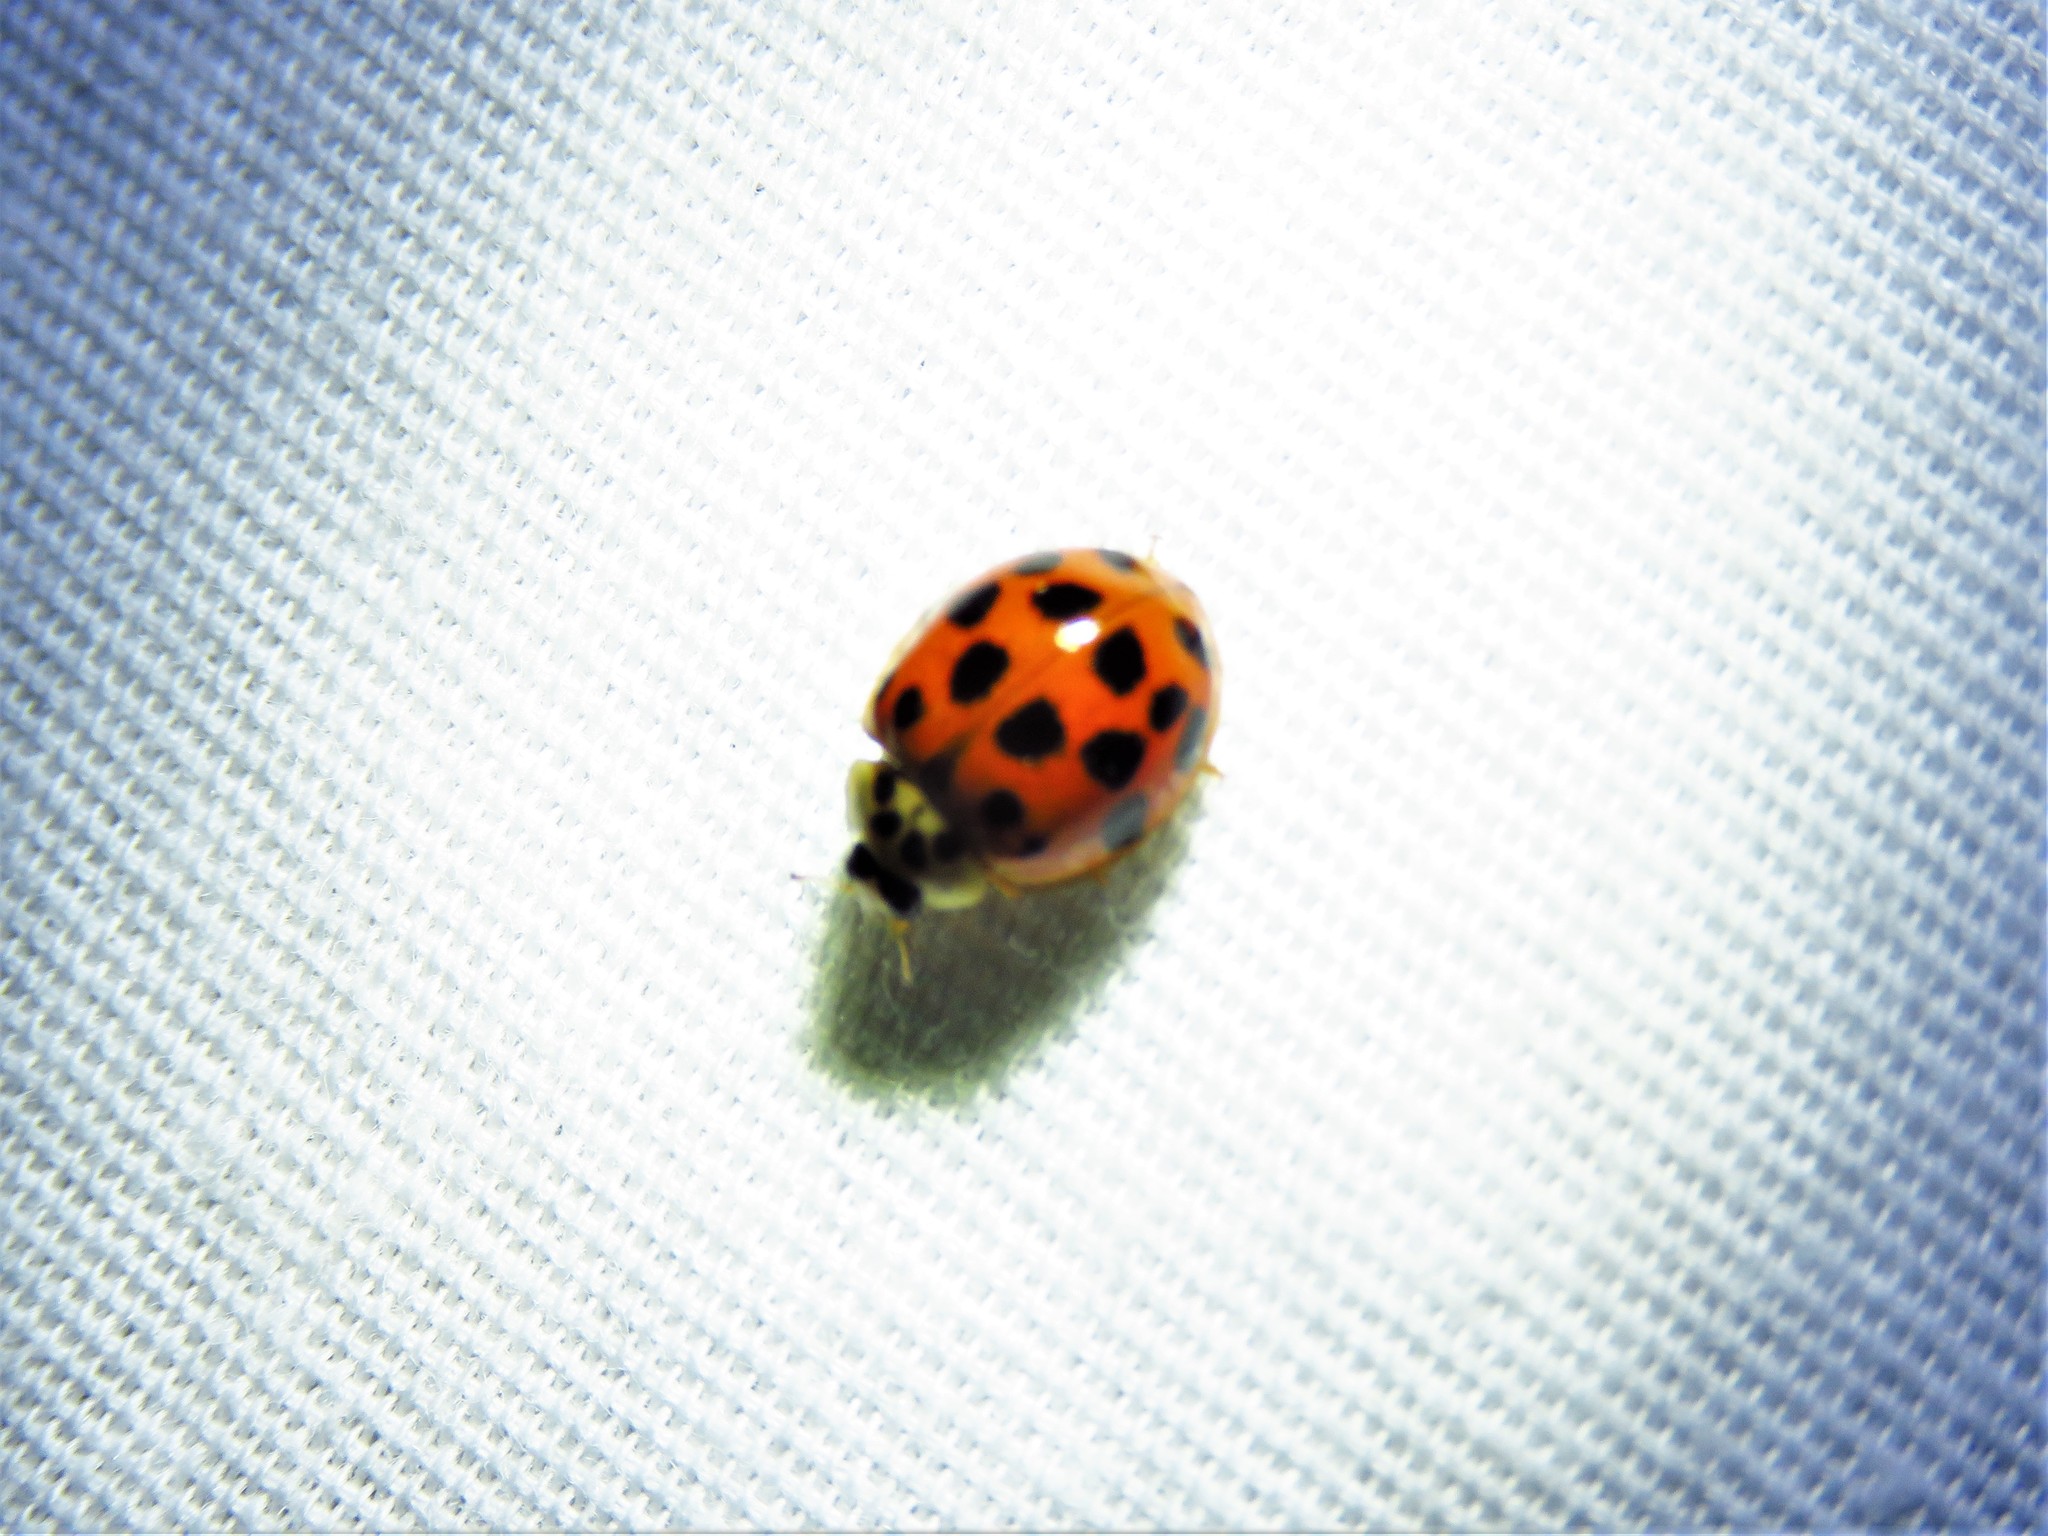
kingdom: Animalia
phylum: Arthropoda
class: Insecta
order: Coleoptera
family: Coccinellidae
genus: Harmonia
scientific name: Harmonia axyridis
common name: Harlequin ladybird
